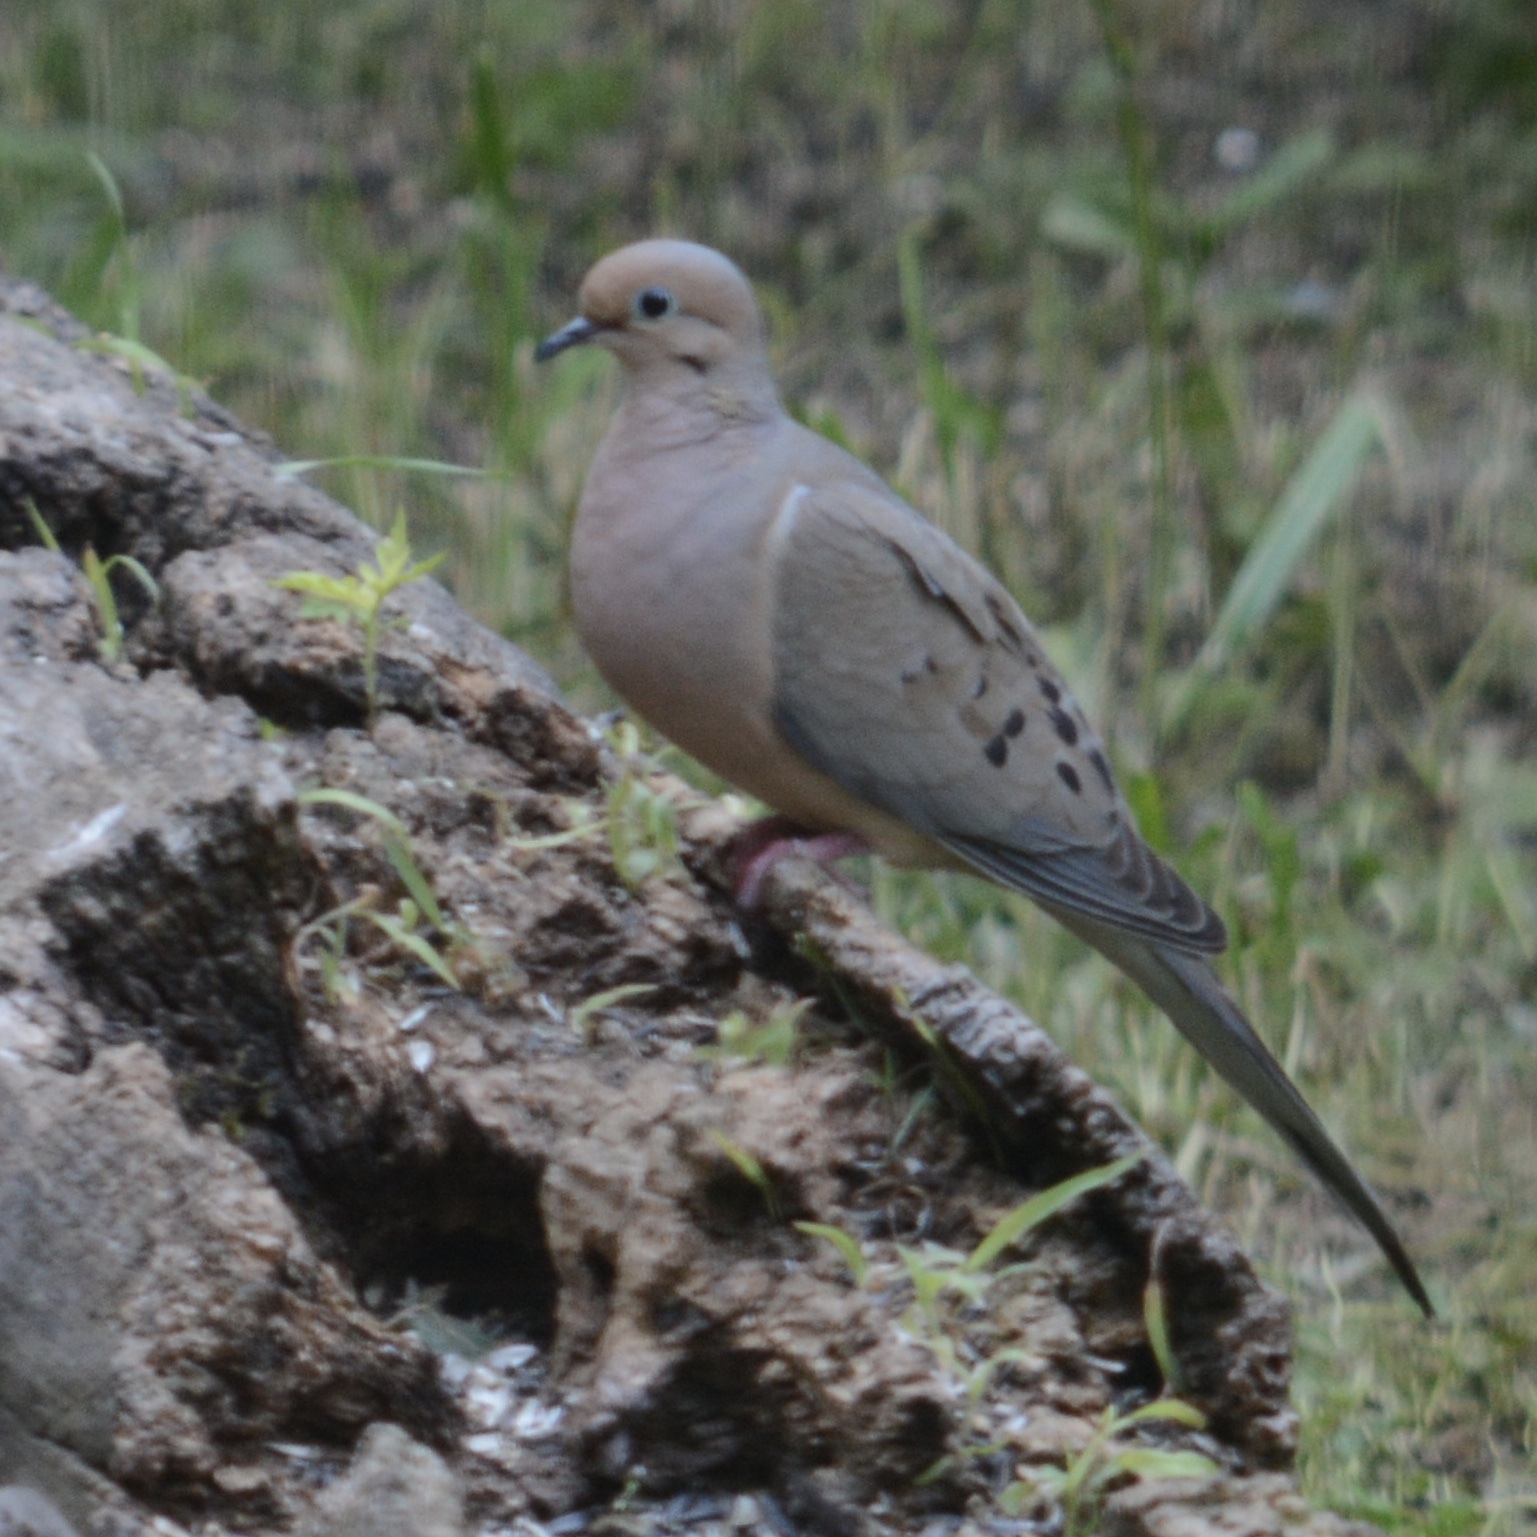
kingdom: Animalia
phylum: Chordata
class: Aves
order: Columbiformes
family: Columbidae
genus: Zenaida
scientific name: Zenaida macroura
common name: Mourning dove
